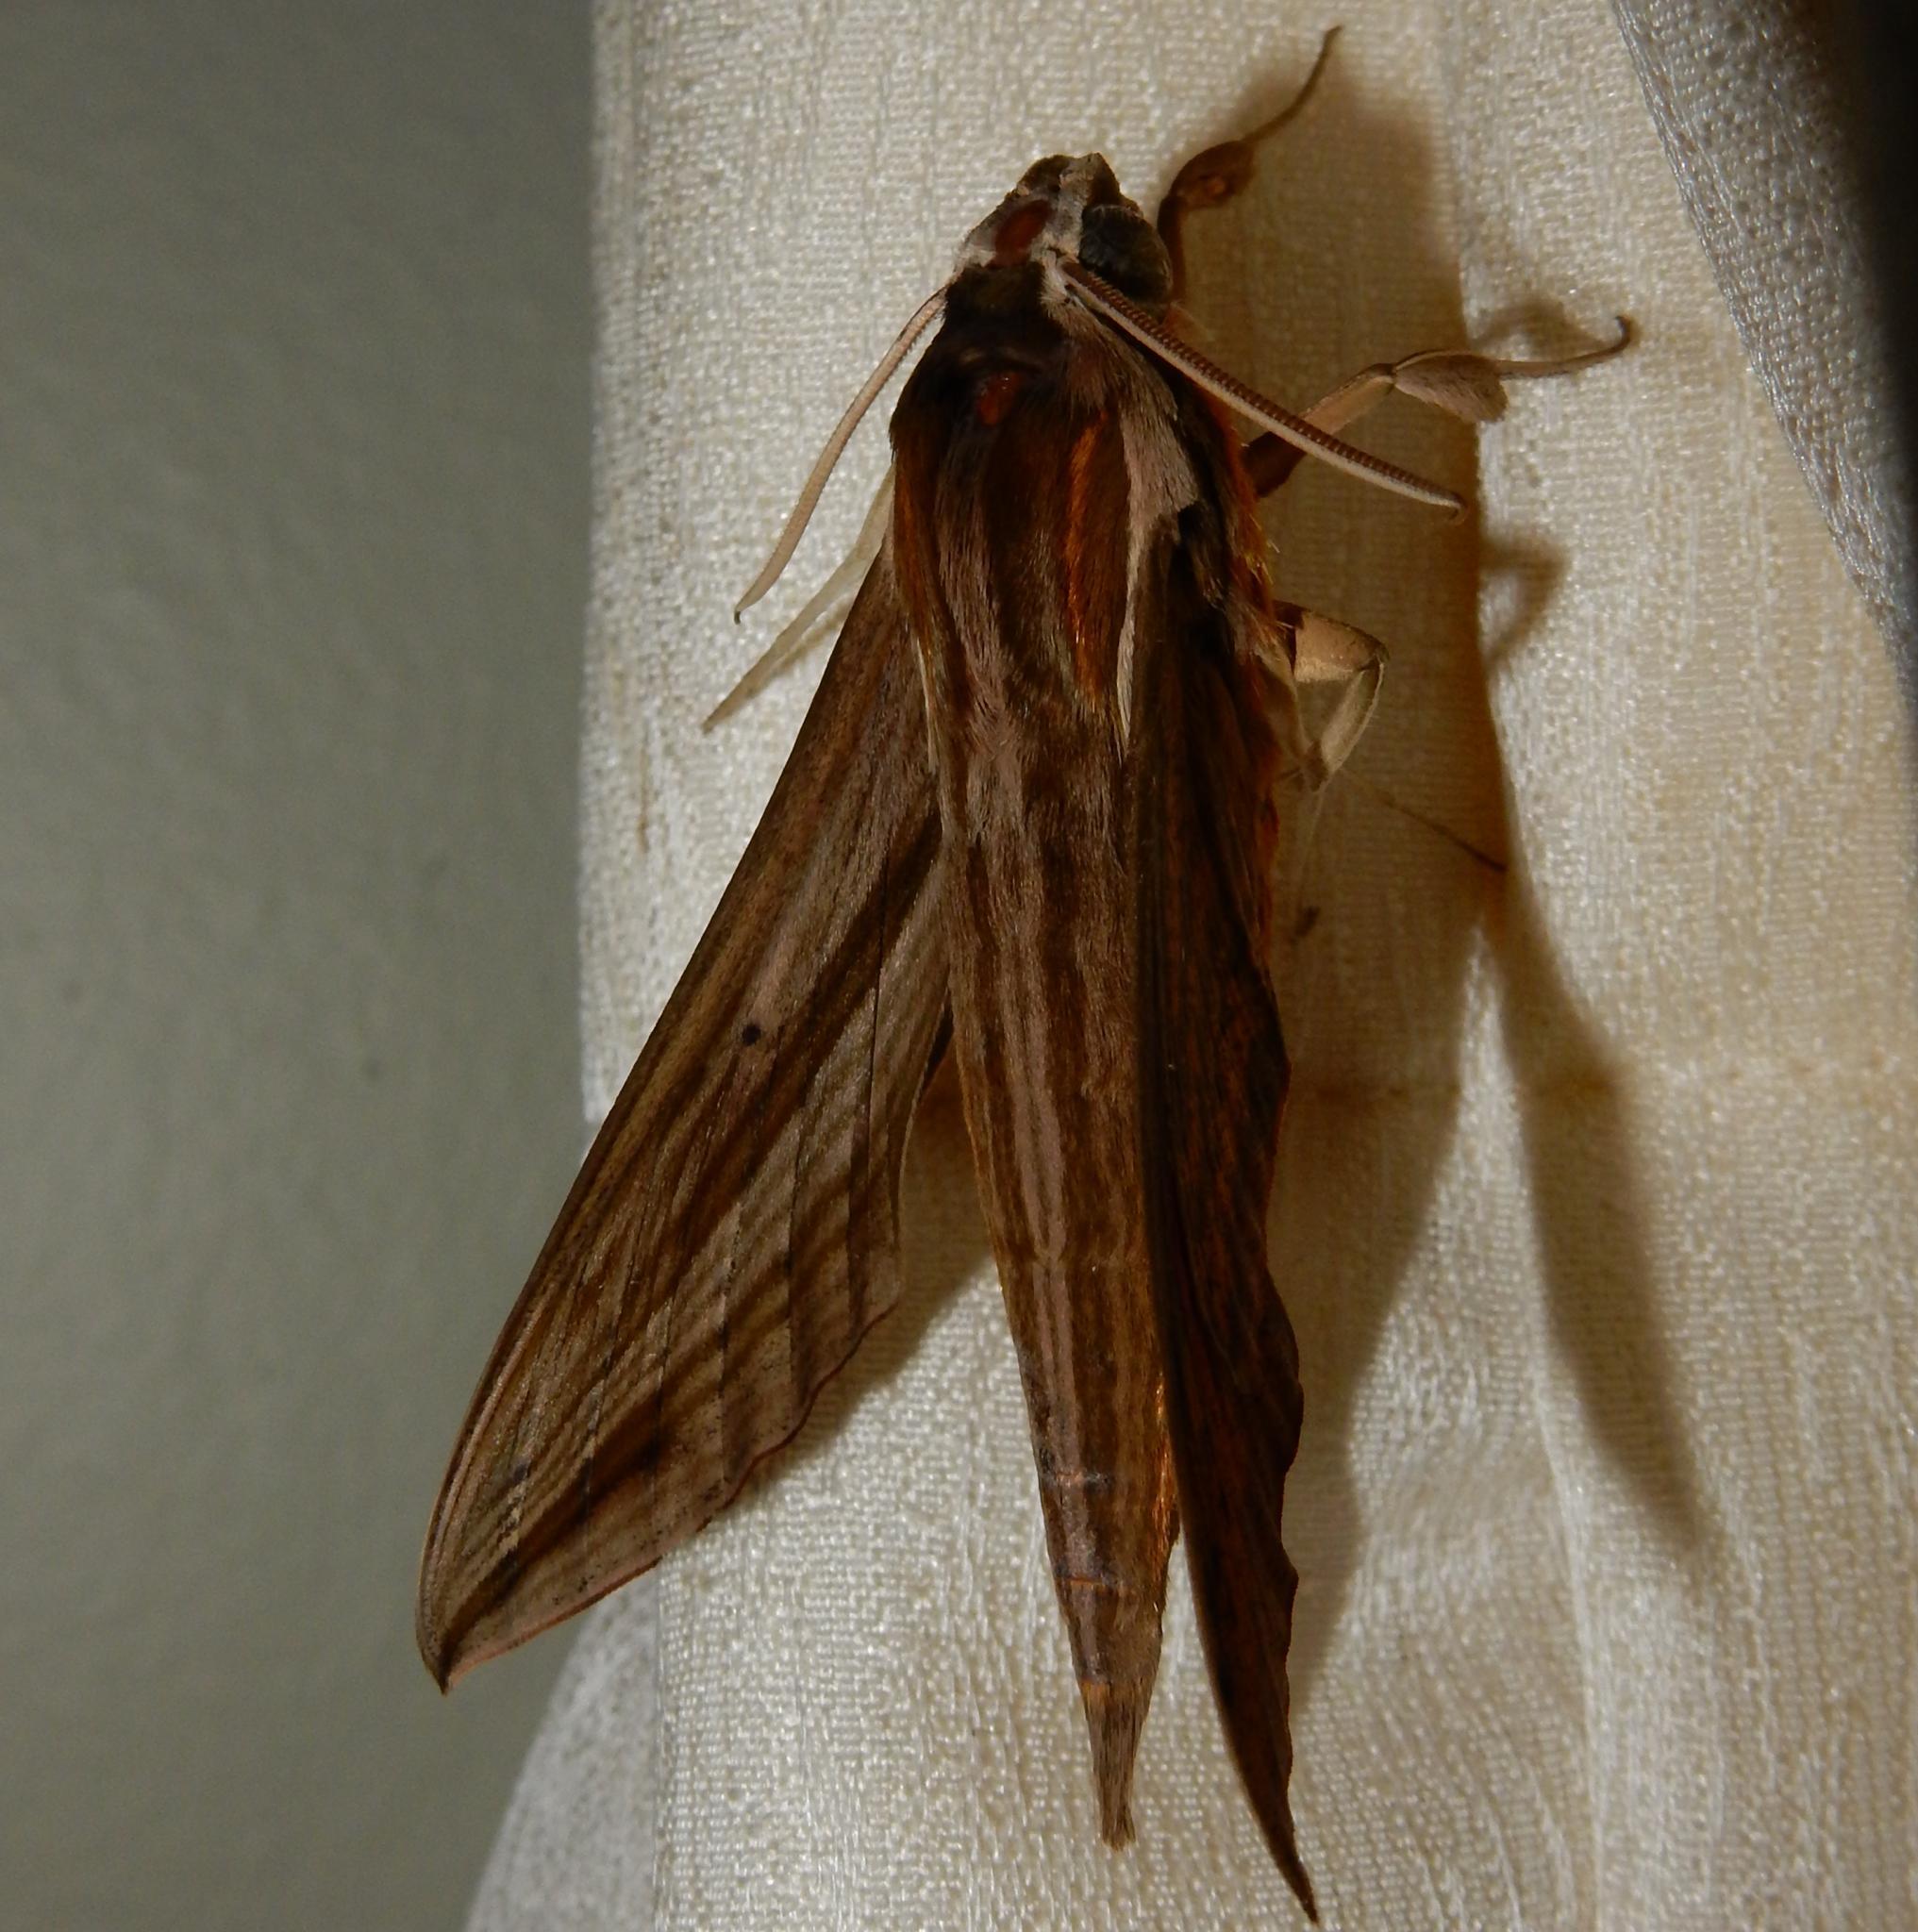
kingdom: Animalia
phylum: Arthropoda
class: Insecta
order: Lepidoptera
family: Sphingidae
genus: Hippotion
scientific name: Hippotion eson
